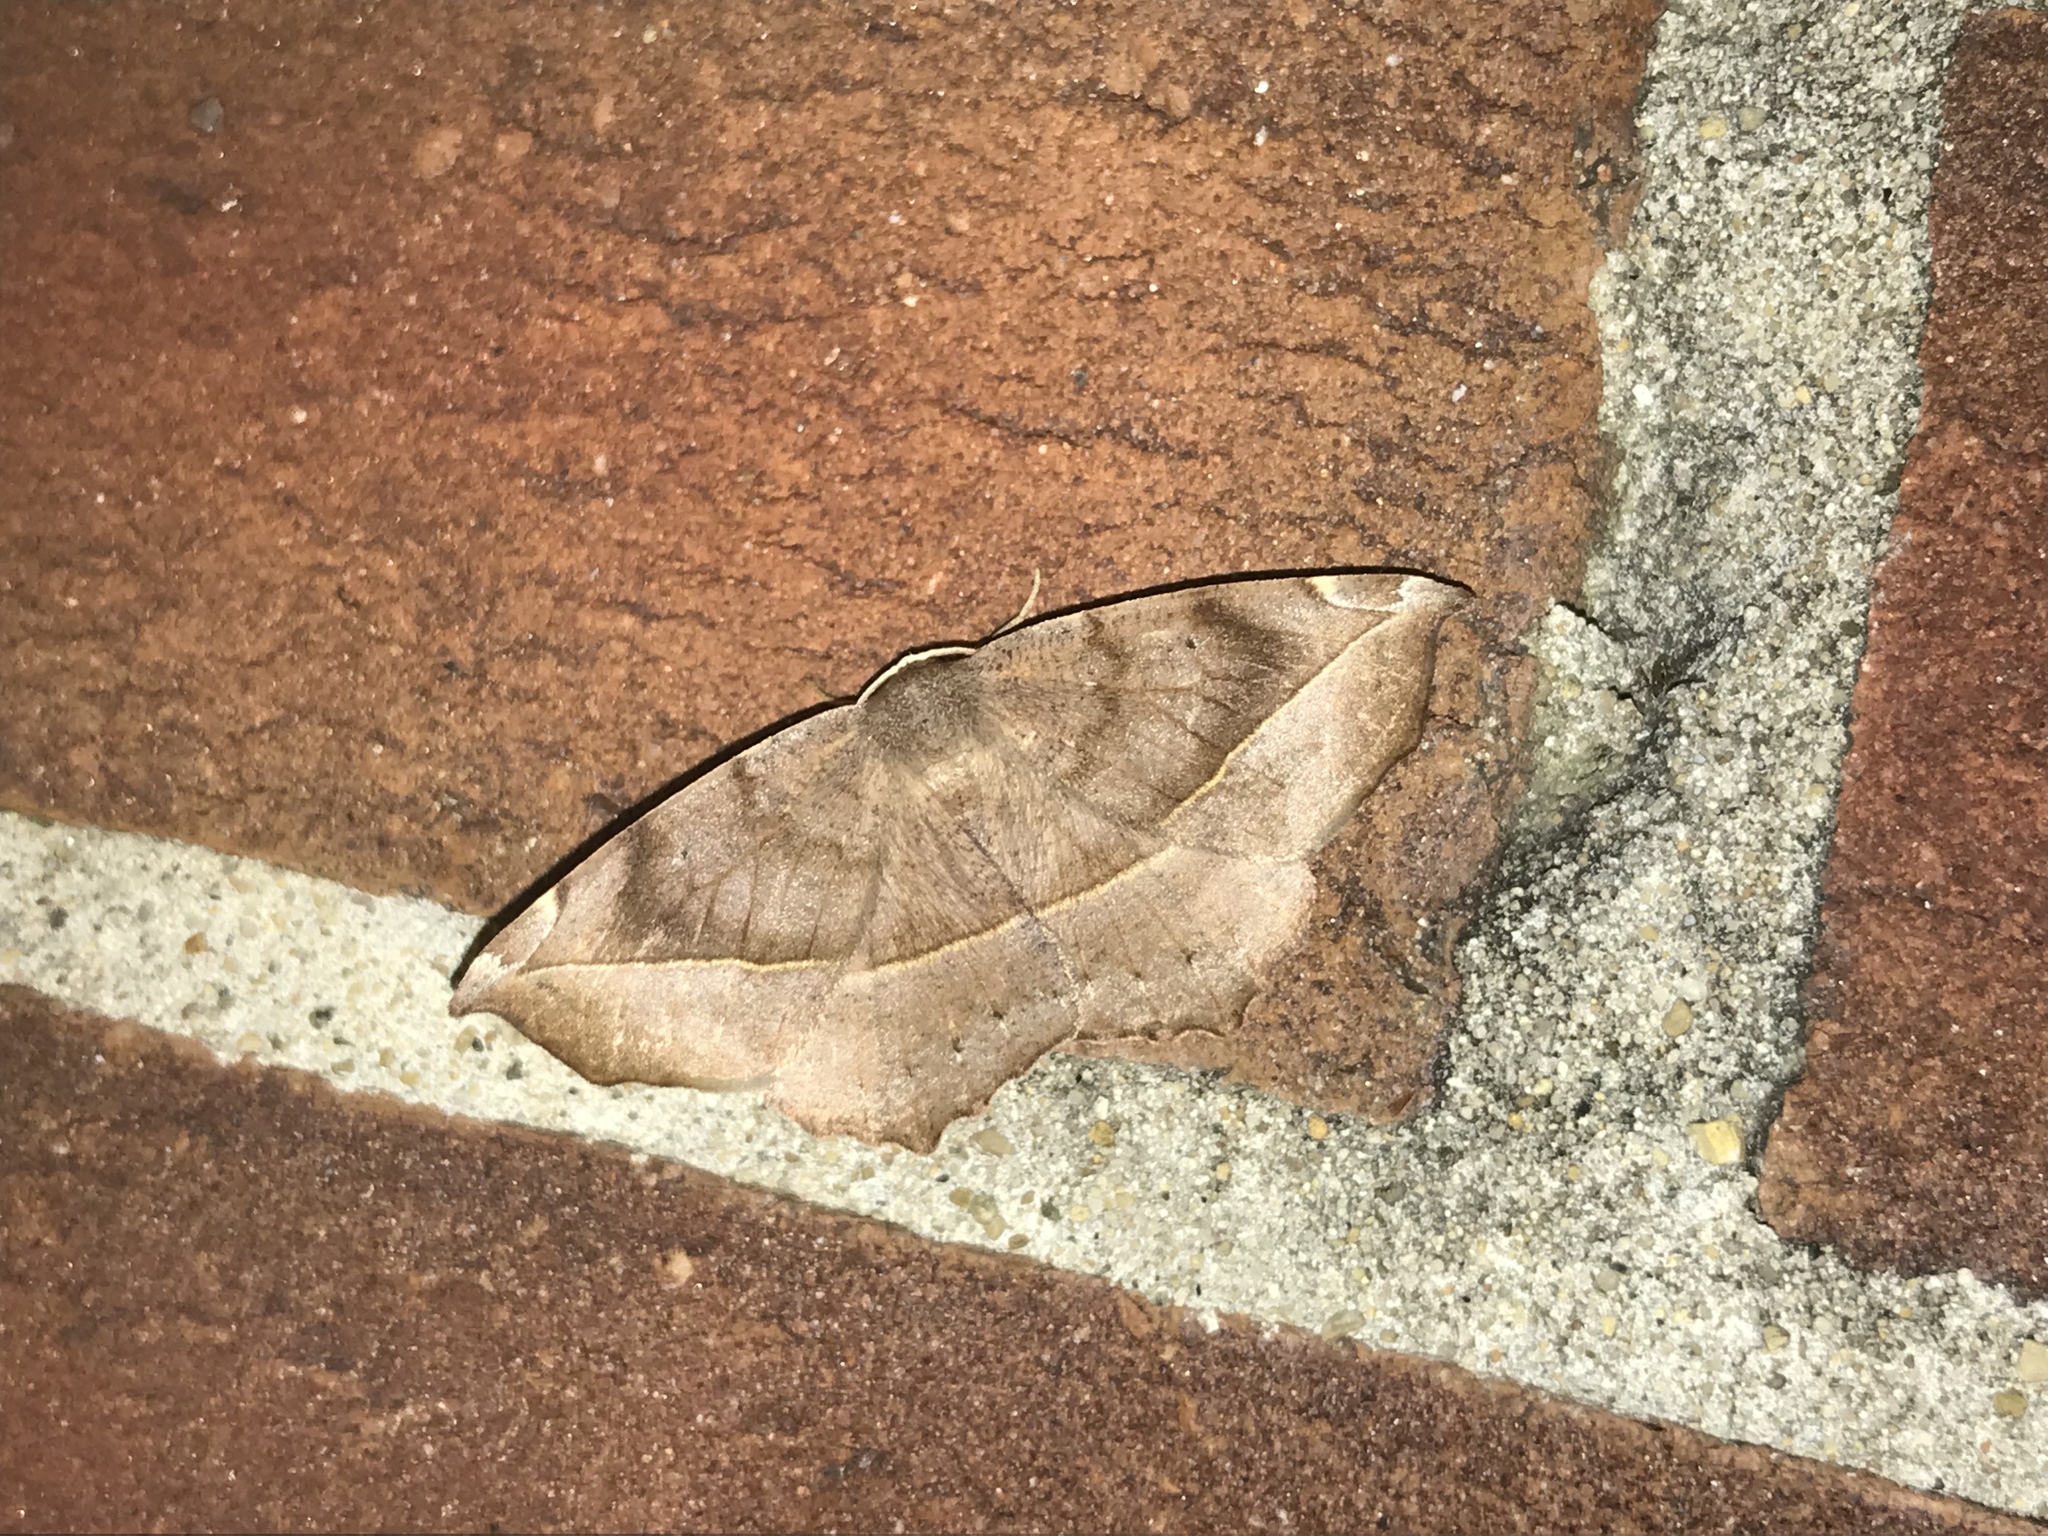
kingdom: Animalia
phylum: Arthropoda
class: Insecta
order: Lepidoptera
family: Geometridae
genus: Eutrapela
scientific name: Eutrapela clemataria
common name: Curved-toothed geometer
